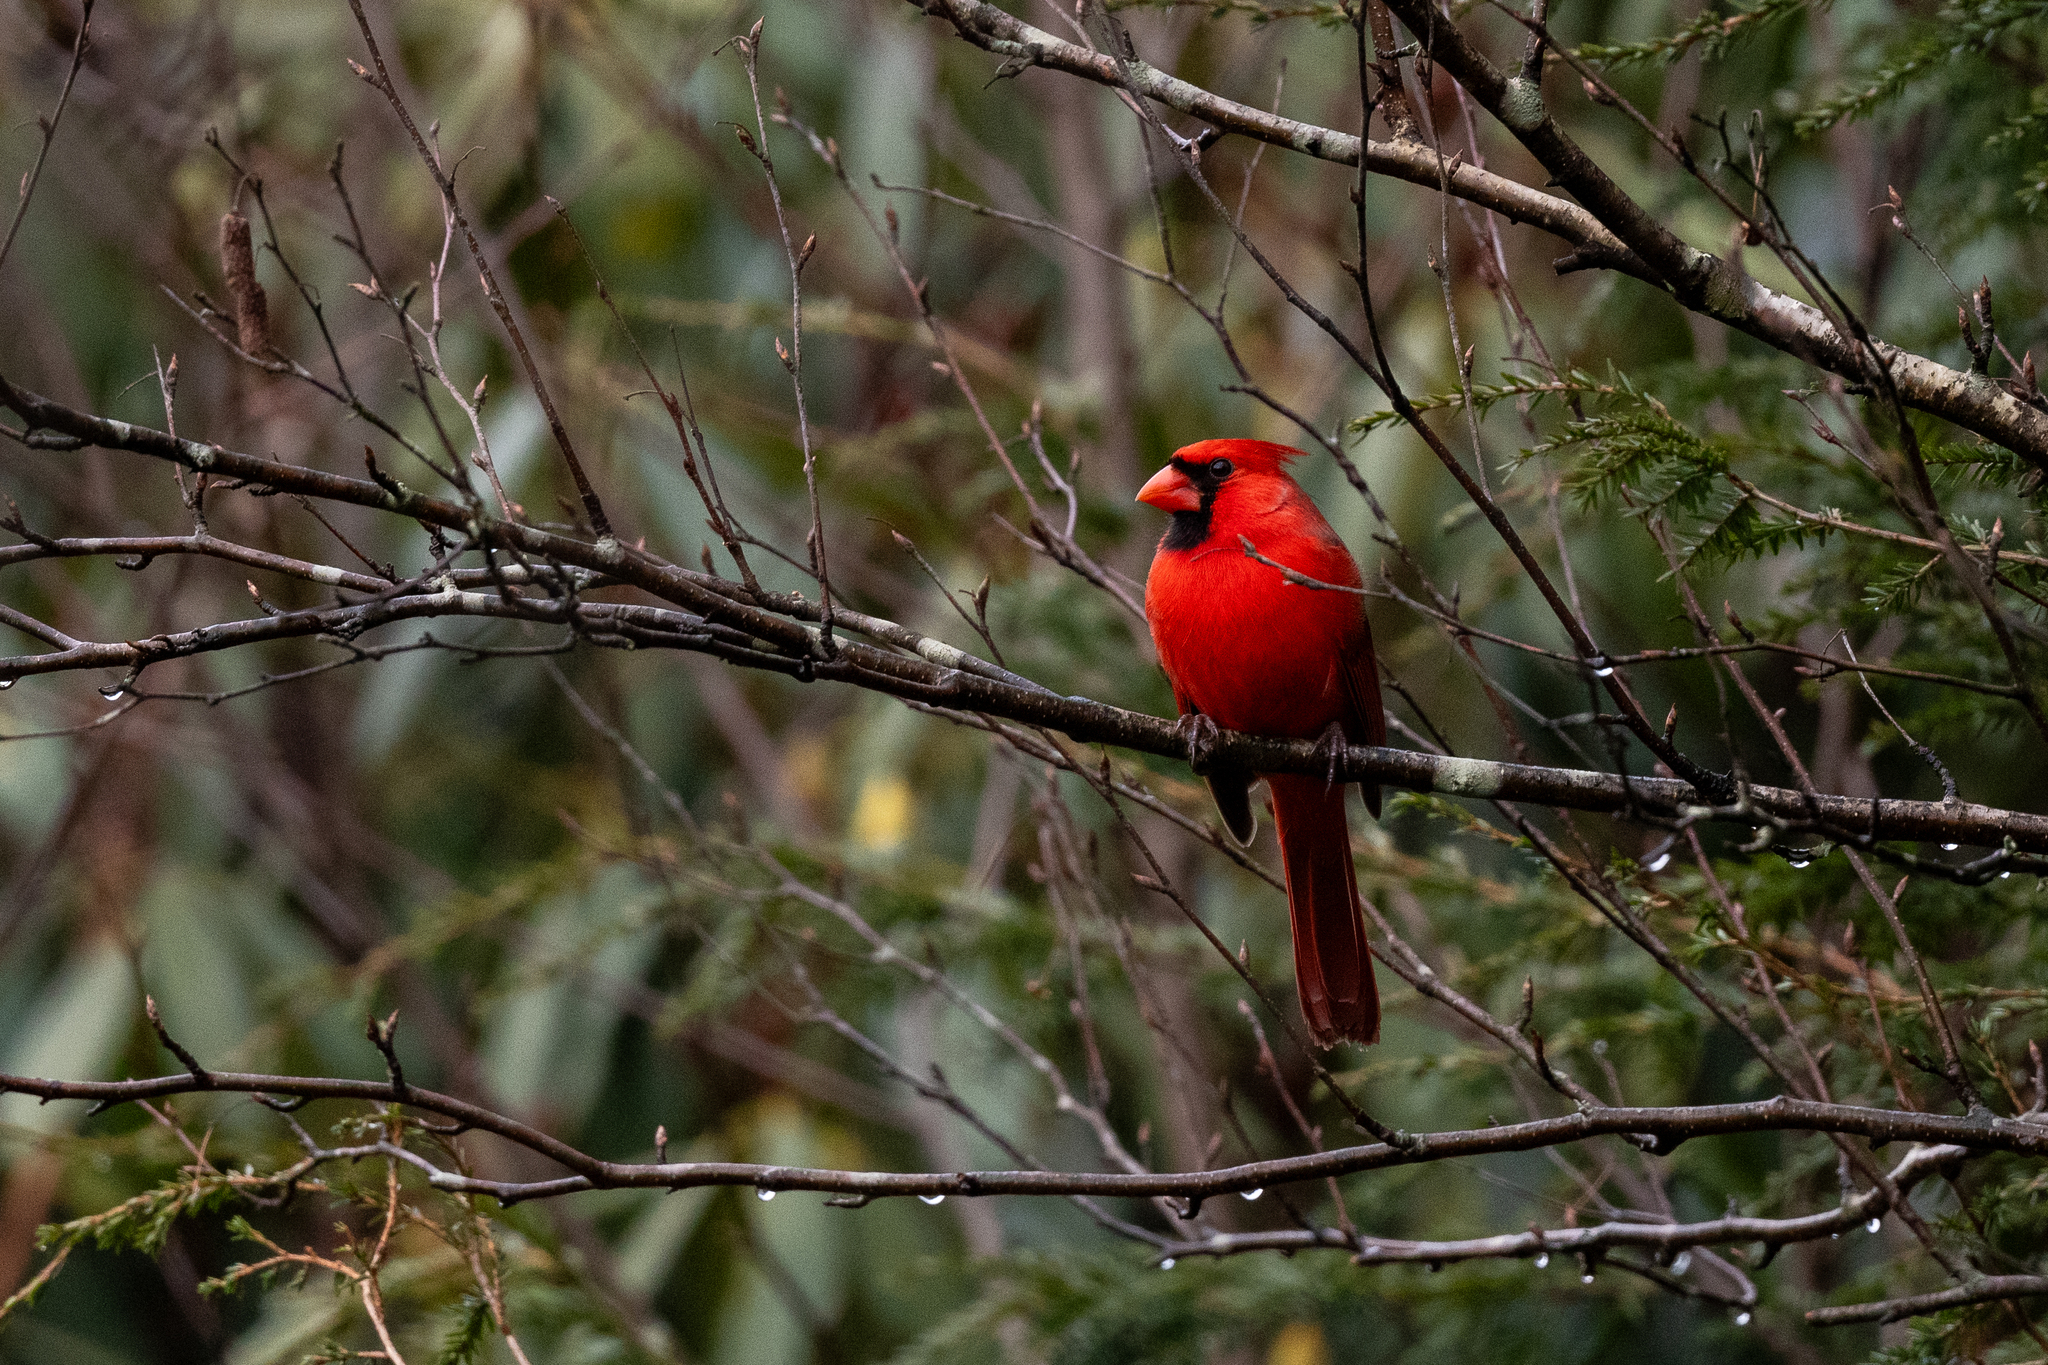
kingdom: Animalia
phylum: Chordata
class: Aves
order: Passeriformes
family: Cardinalidae
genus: Cardinalis
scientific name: Cardinalis cardinalis
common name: Northern cardinal
